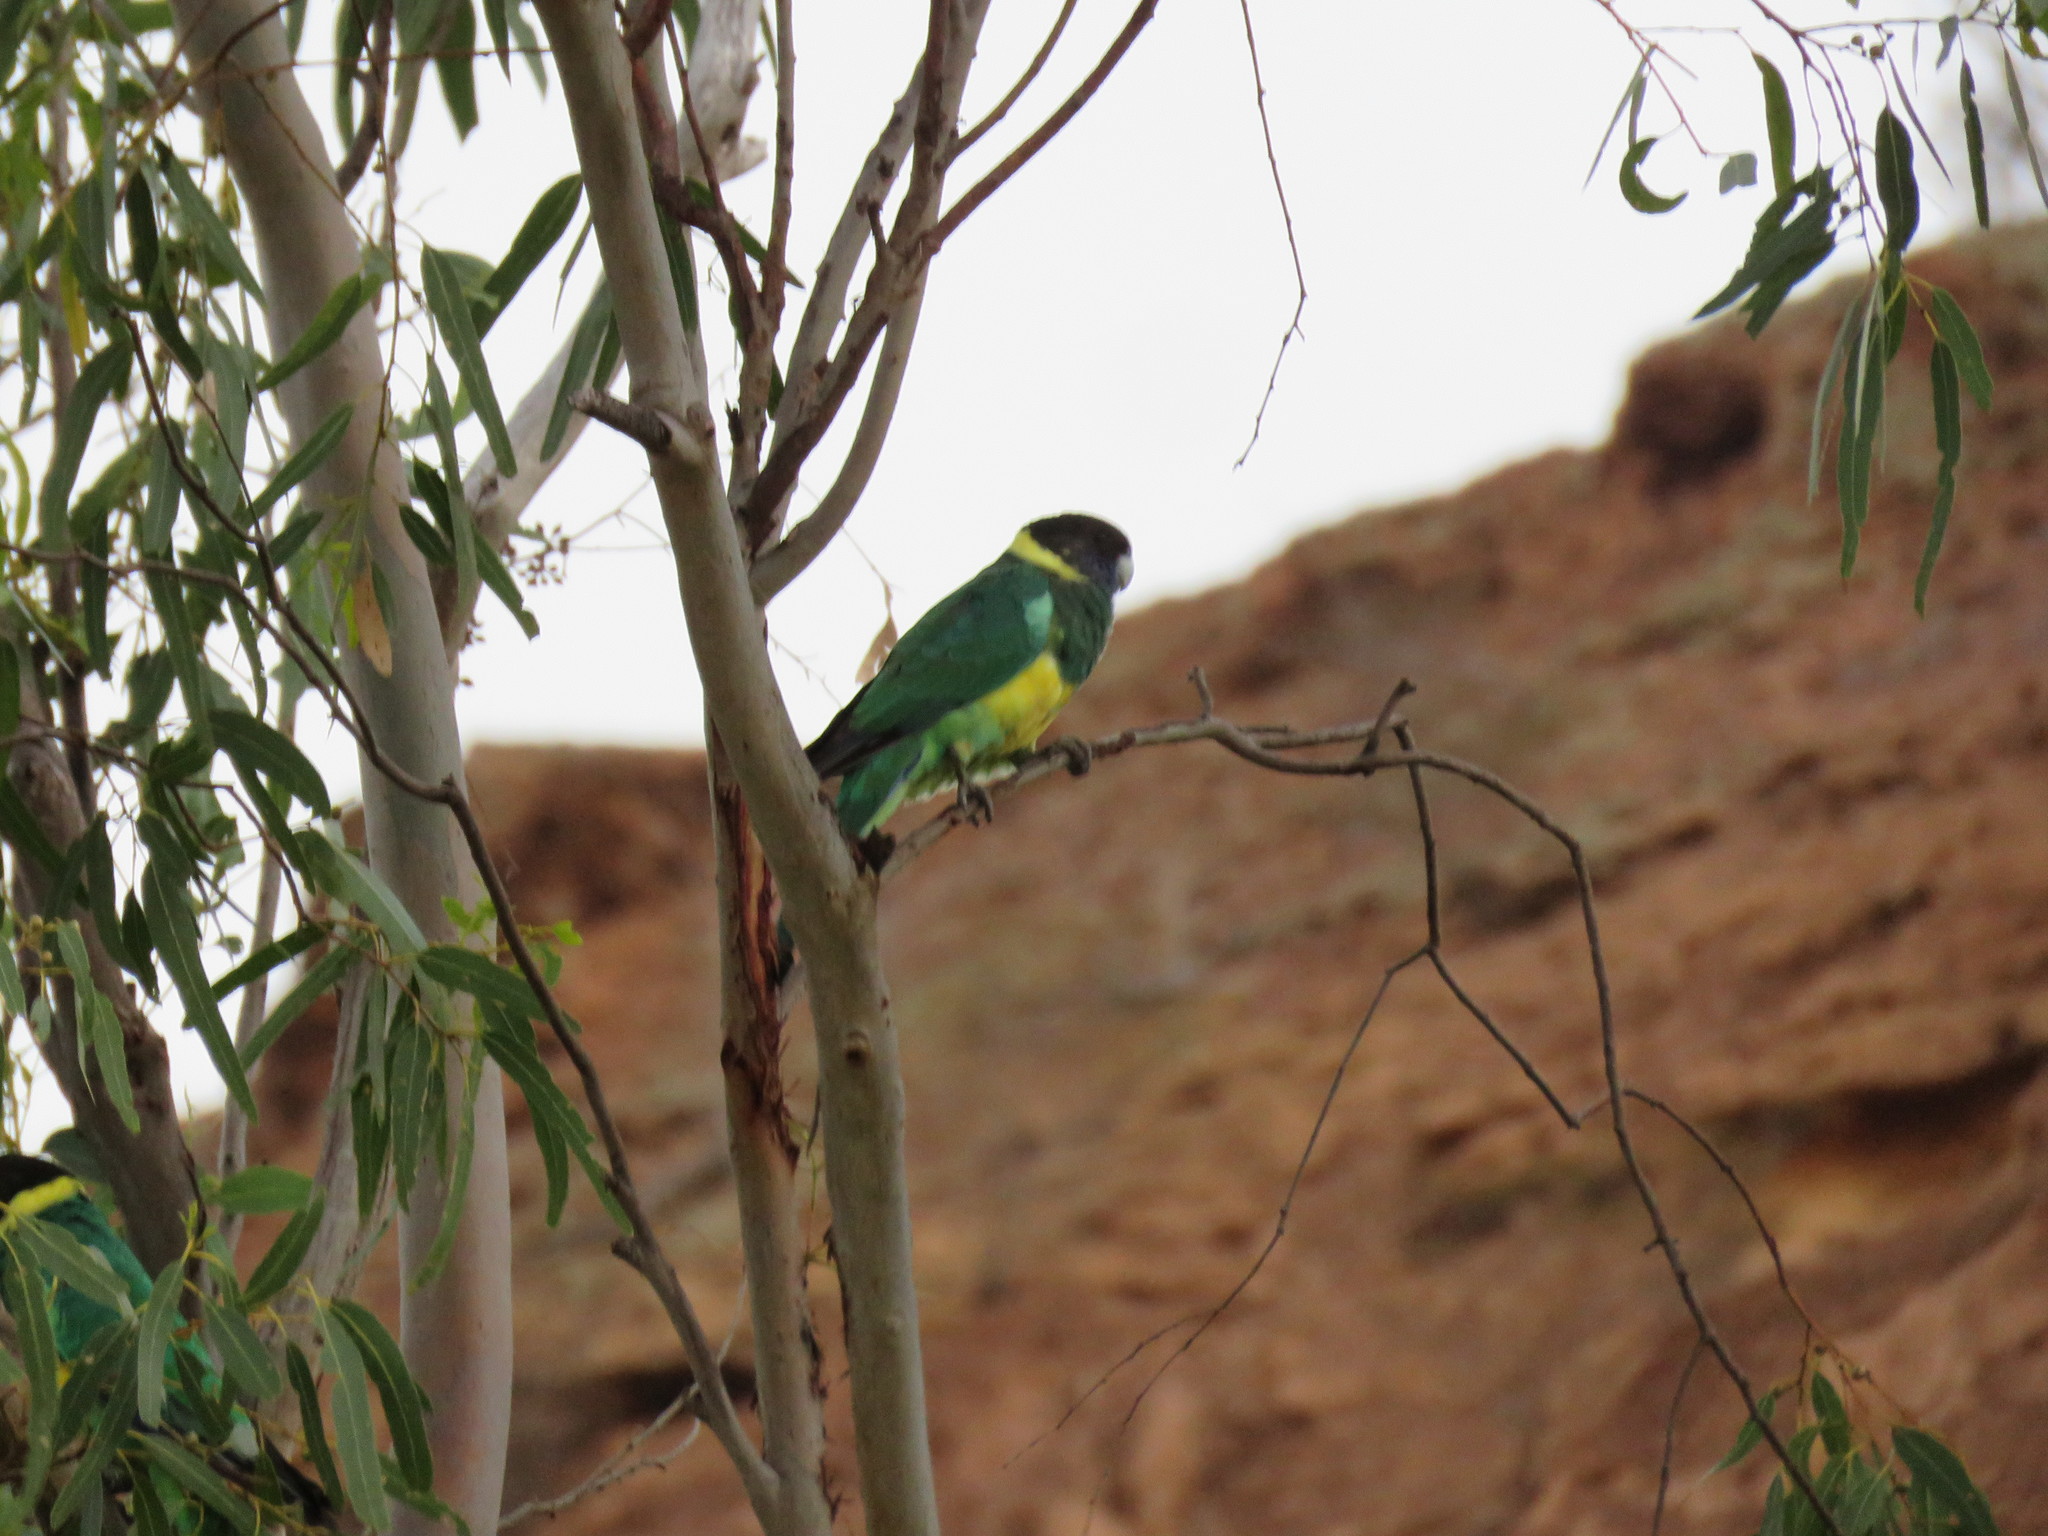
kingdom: Animalia
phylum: Chordata
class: Aves
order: Psittaciformes
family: Psittacidae
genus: Barnardius
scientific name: Barnardius zonarius
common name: Australian ringneck
